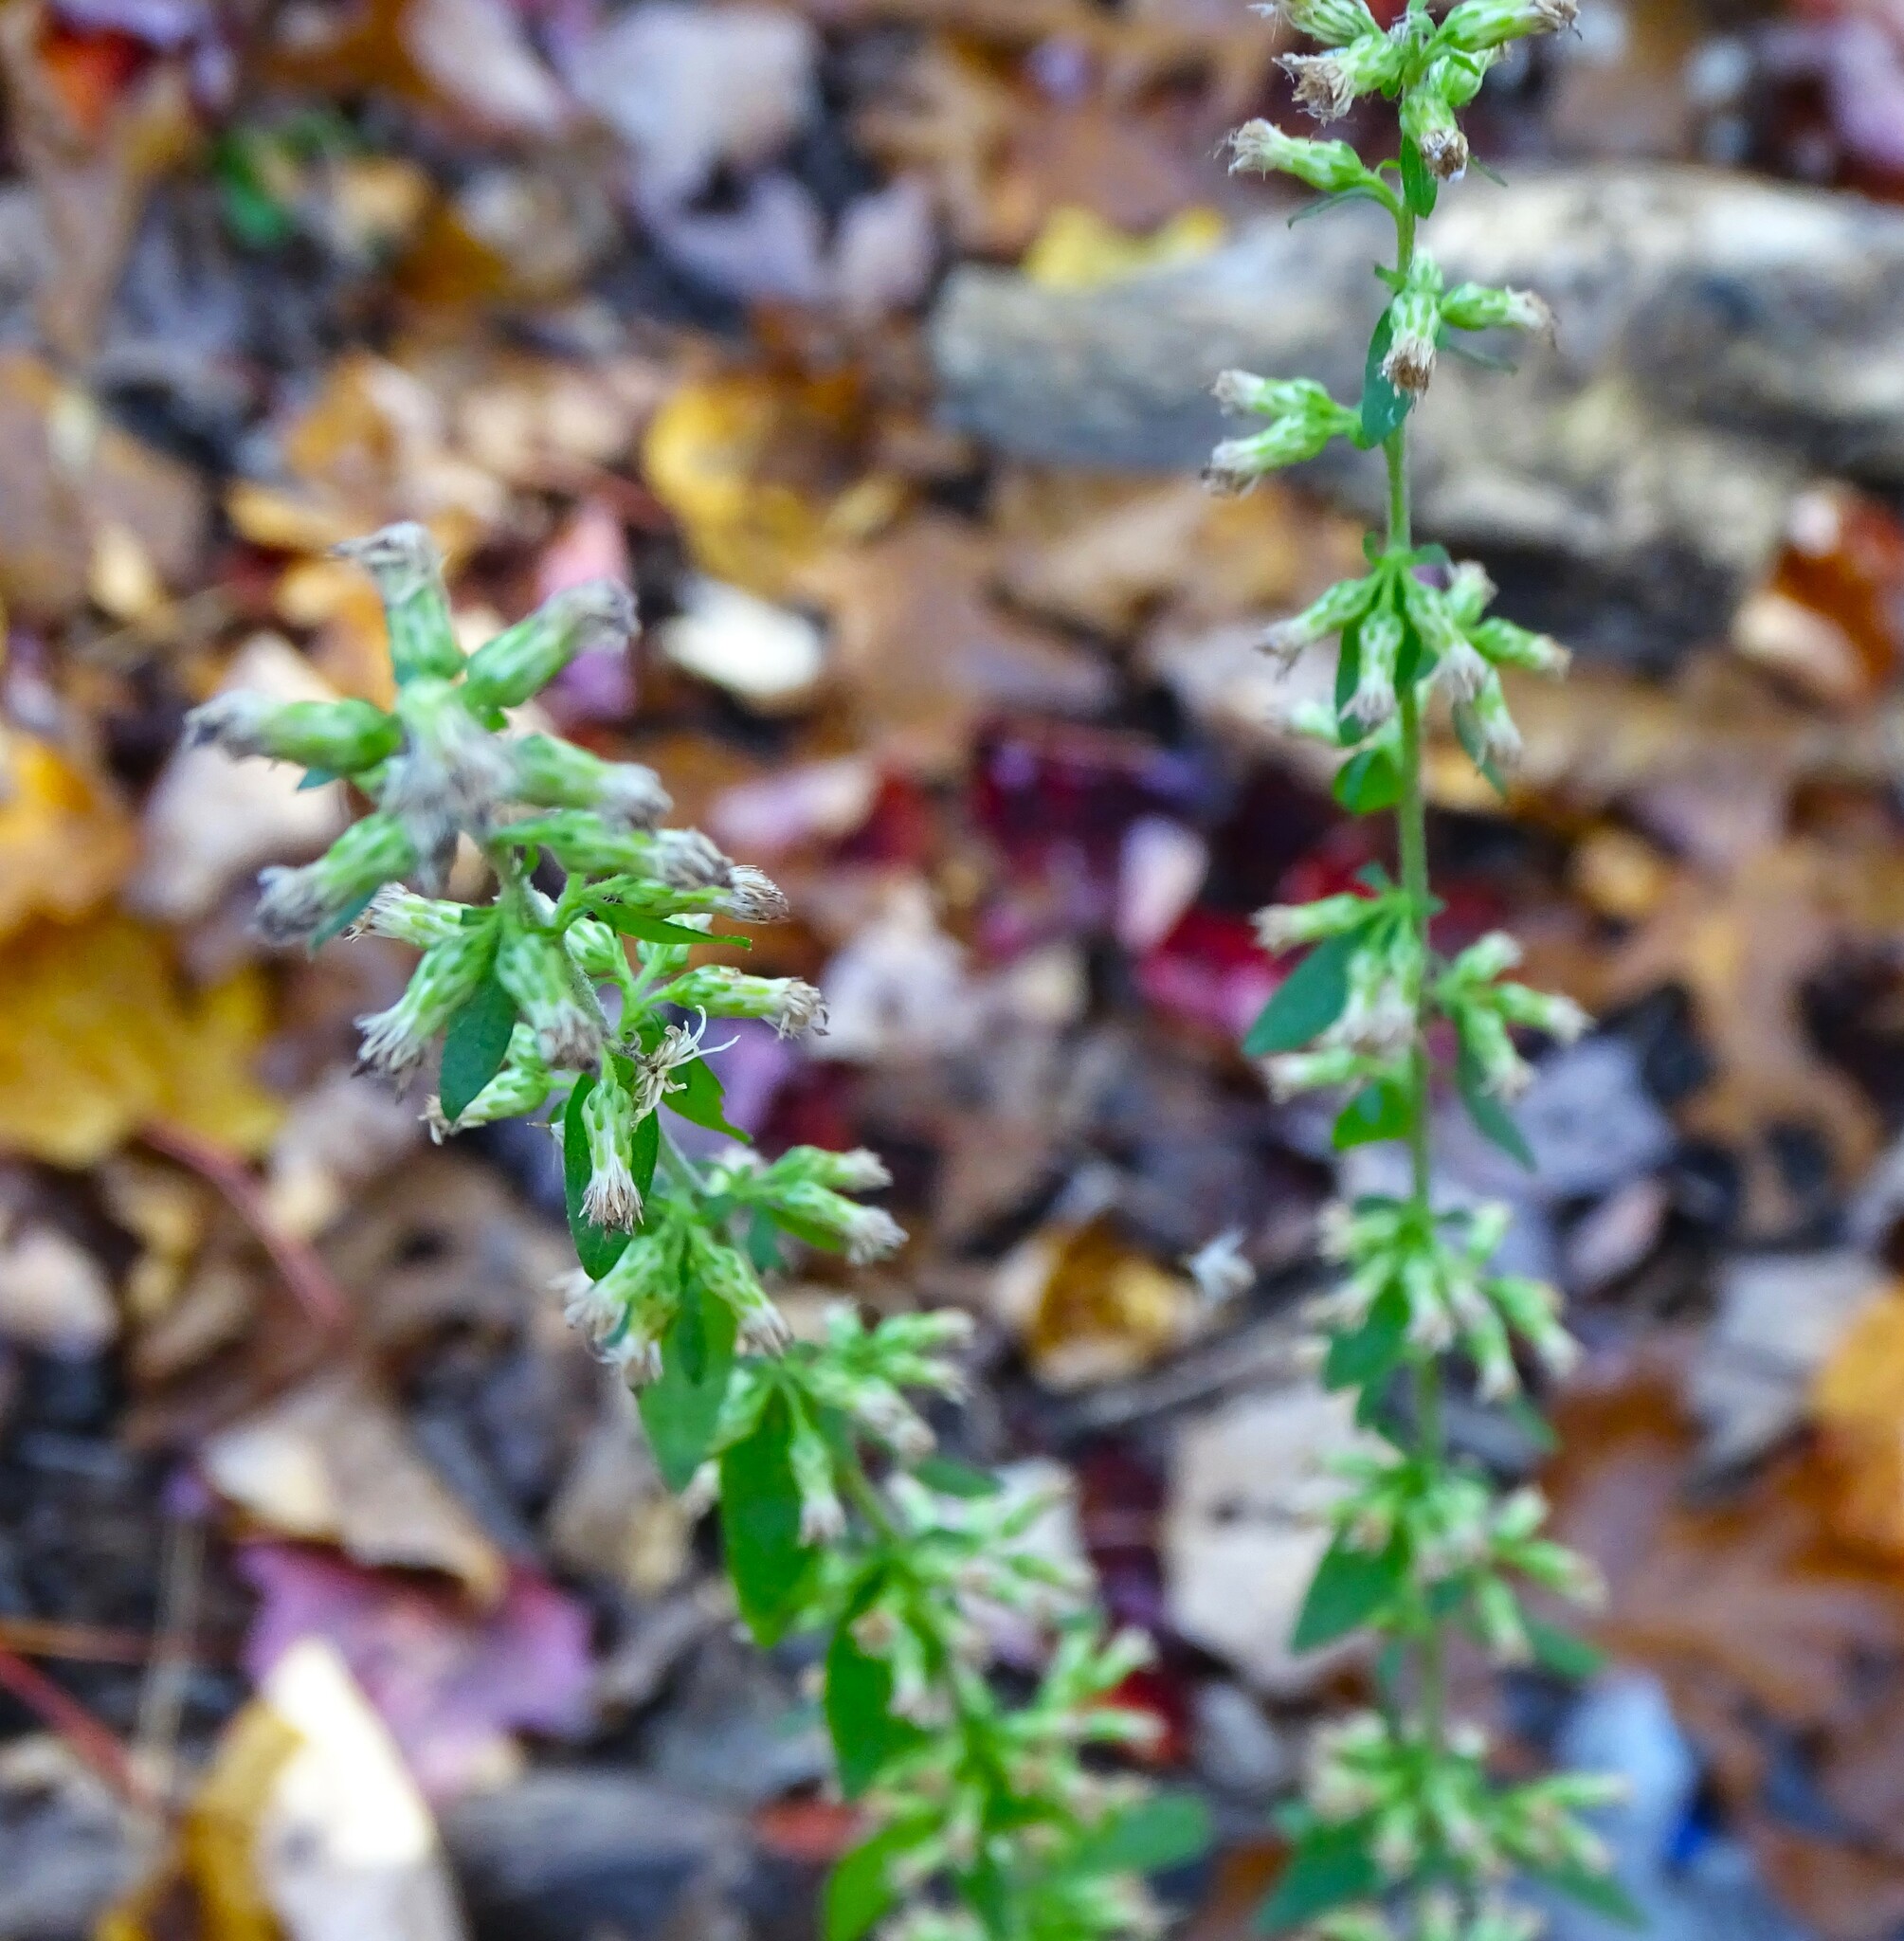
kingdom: Plantae
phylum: Tracheophyta
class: Magnoliopsida
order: Asterales
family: Asteraceae
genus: Solidago
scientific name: Solidago bicolor
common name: Silverrod
